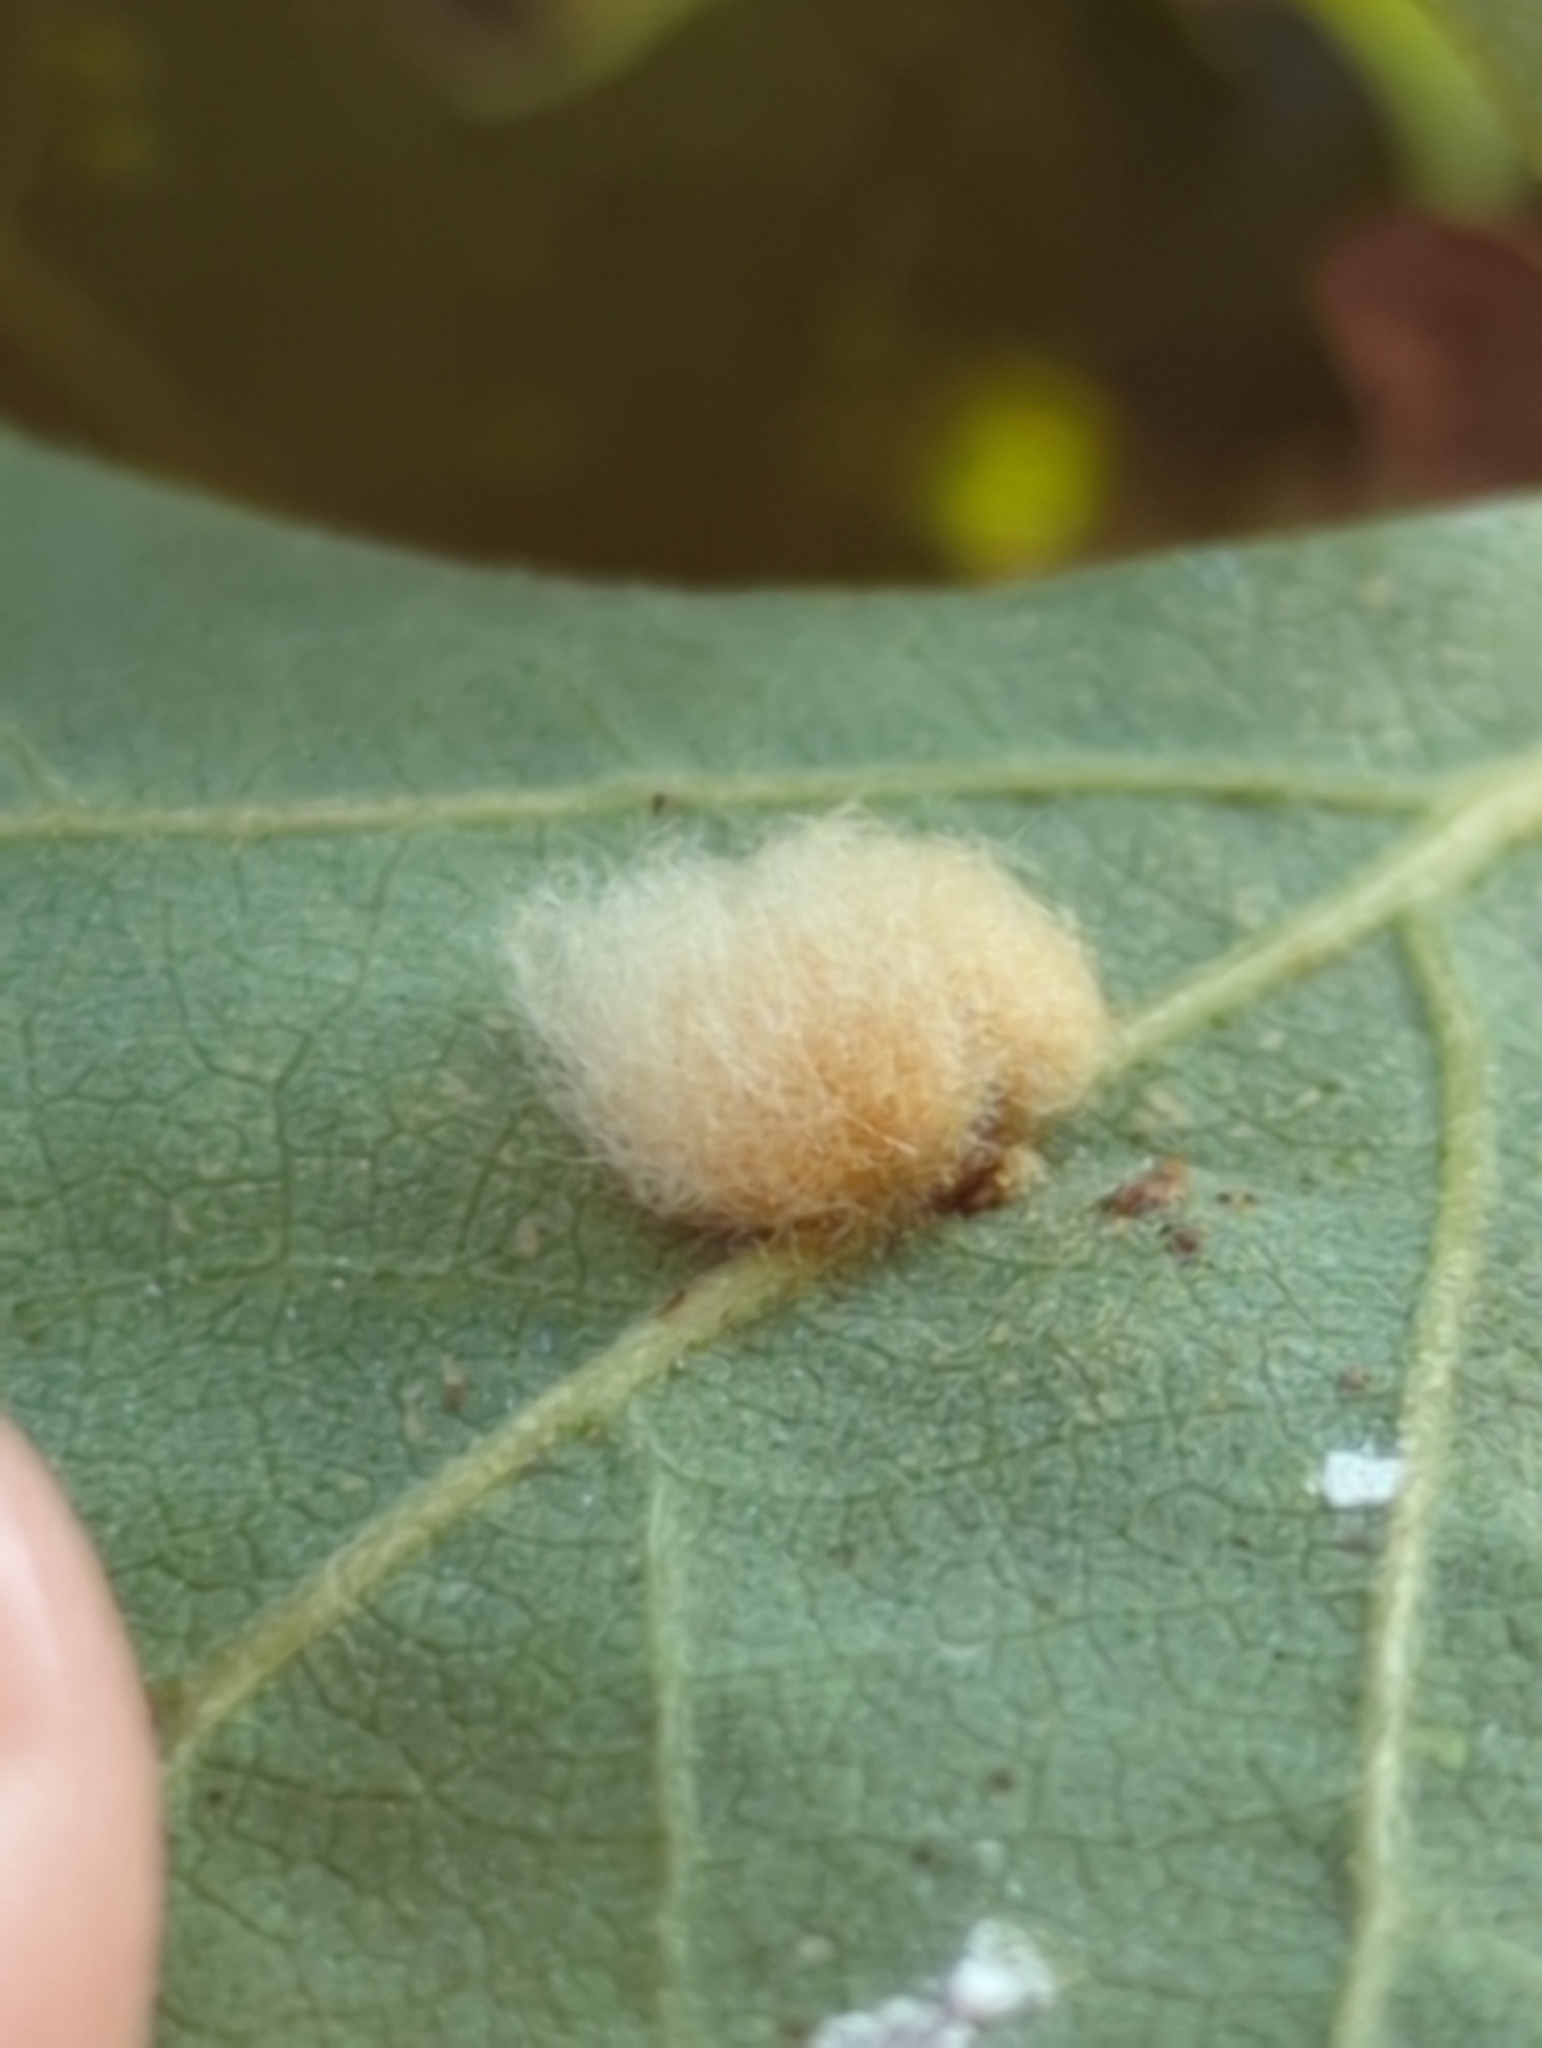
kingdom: Animalia
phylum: Arthropoda
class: Insecta
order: Hymenoptera
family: Cynipidae
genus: Andricus
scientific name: Andricus Druon fullawayi
